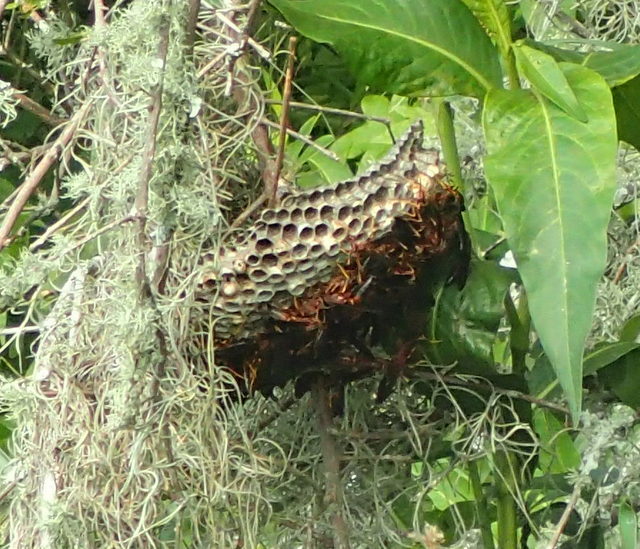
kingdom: Animalia
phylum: Arthropoda
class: Insecta
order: Hymenoptera
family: Eumenidae
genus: Polistes
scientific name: Polistes annularis
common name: Ringed paper wasp
